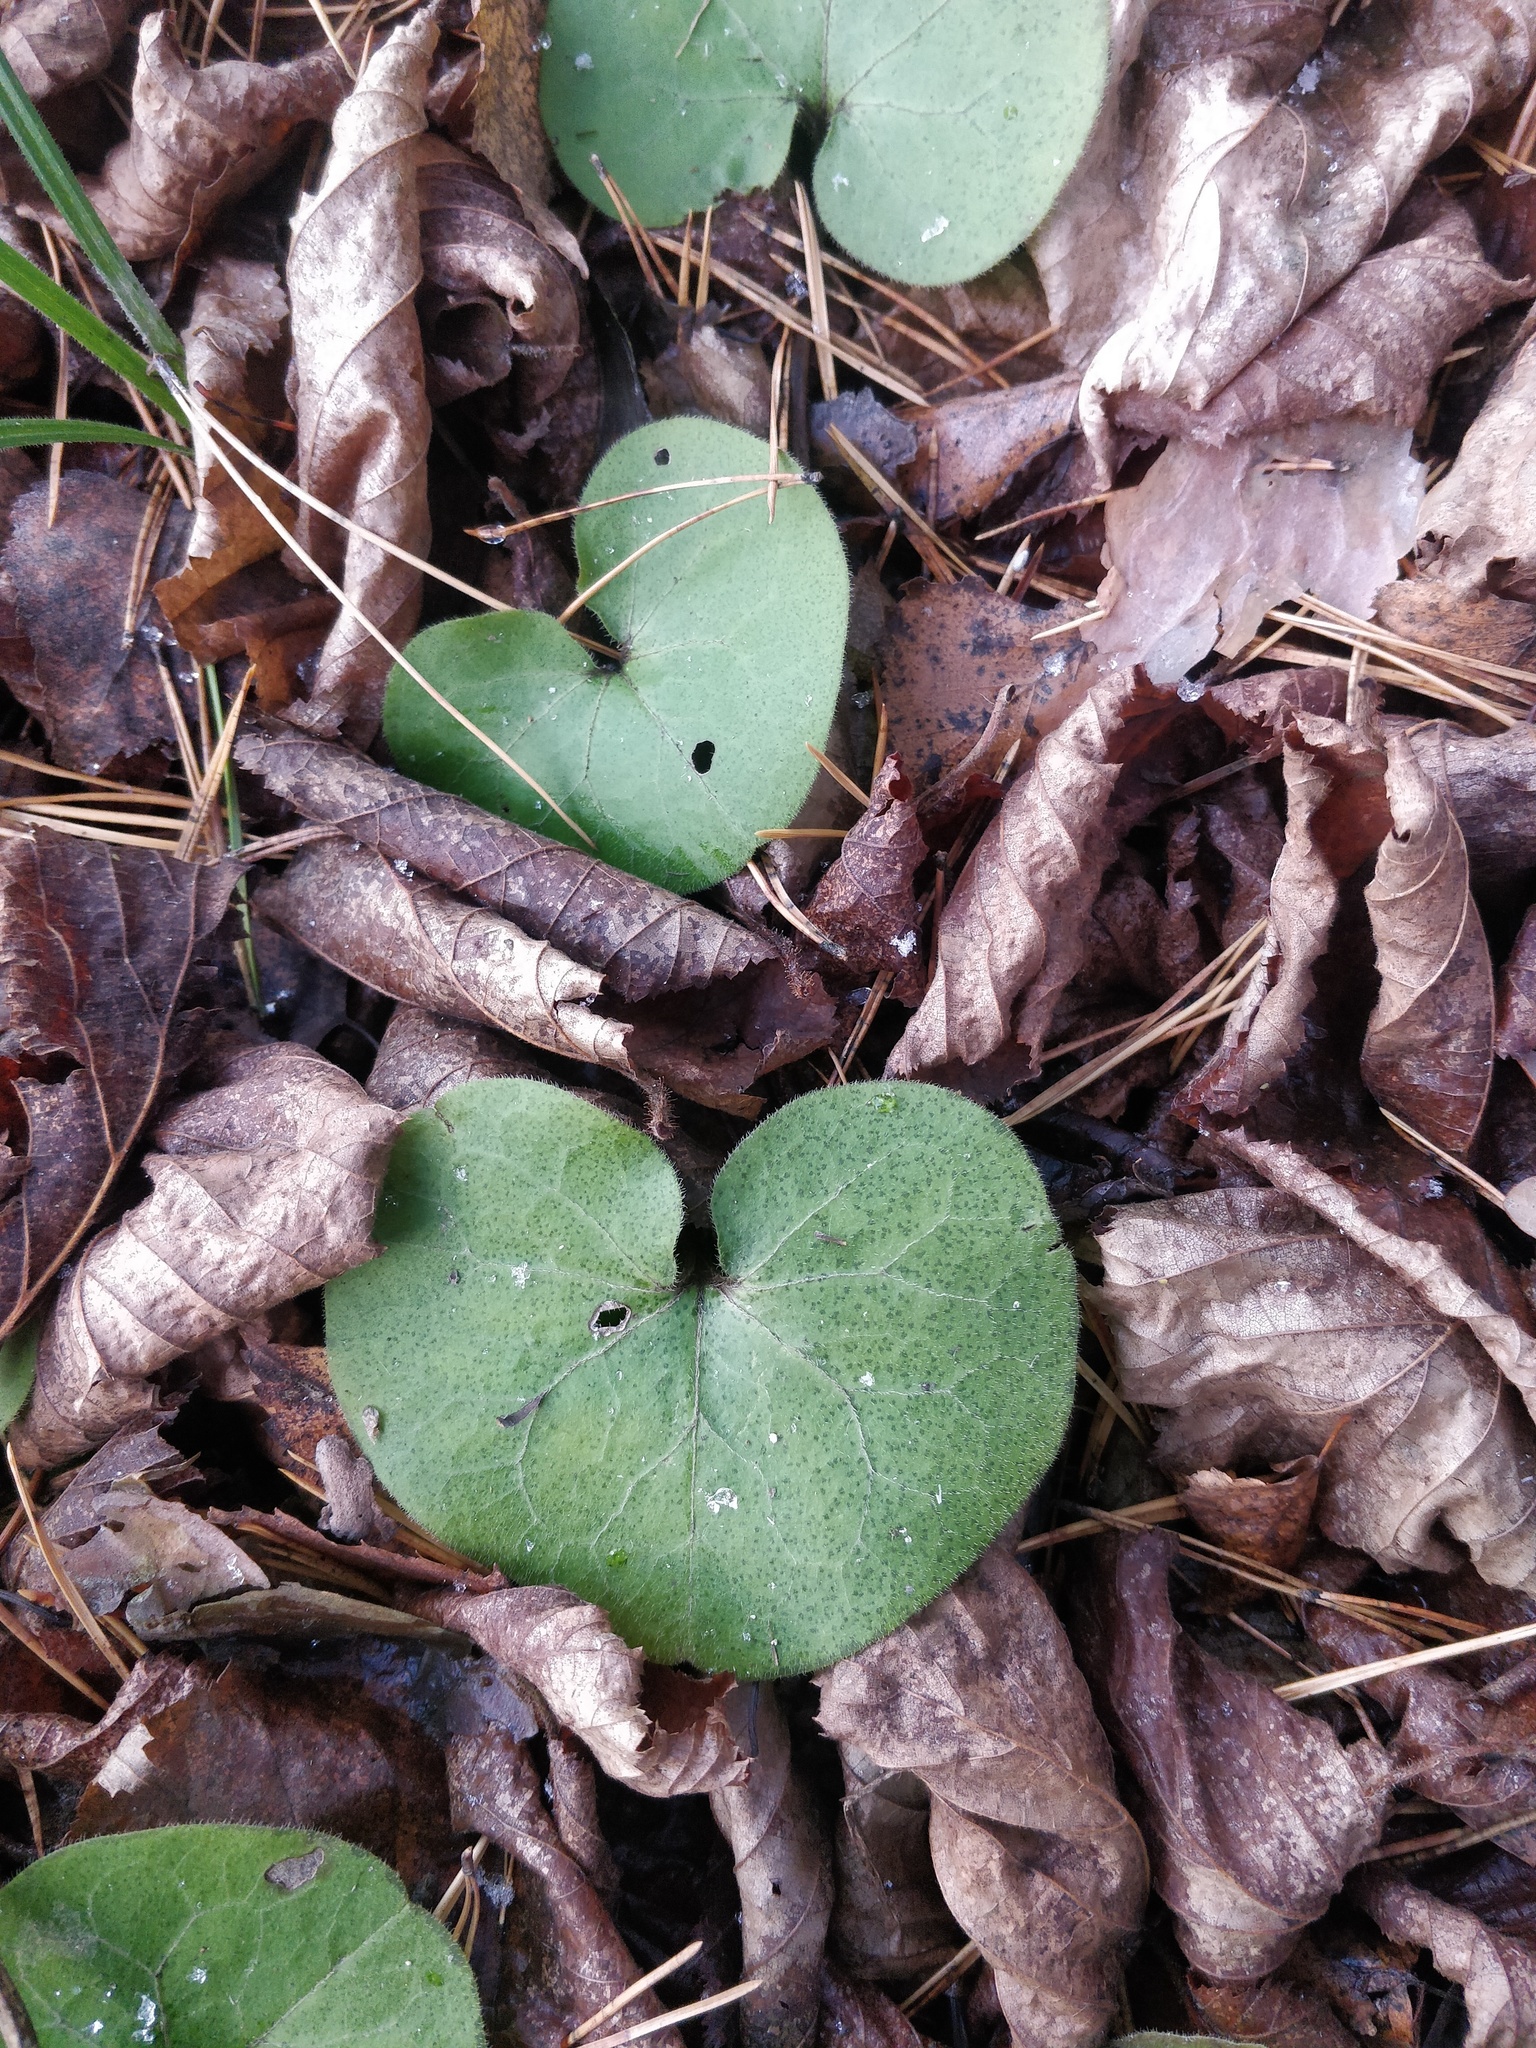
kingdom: Plantae
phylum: Tracheophyta
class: Magnoliopsida
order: Piperales
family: Aristolochiaceae
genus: Asarum
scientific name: Asarum europaeum
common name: Asarabacca
